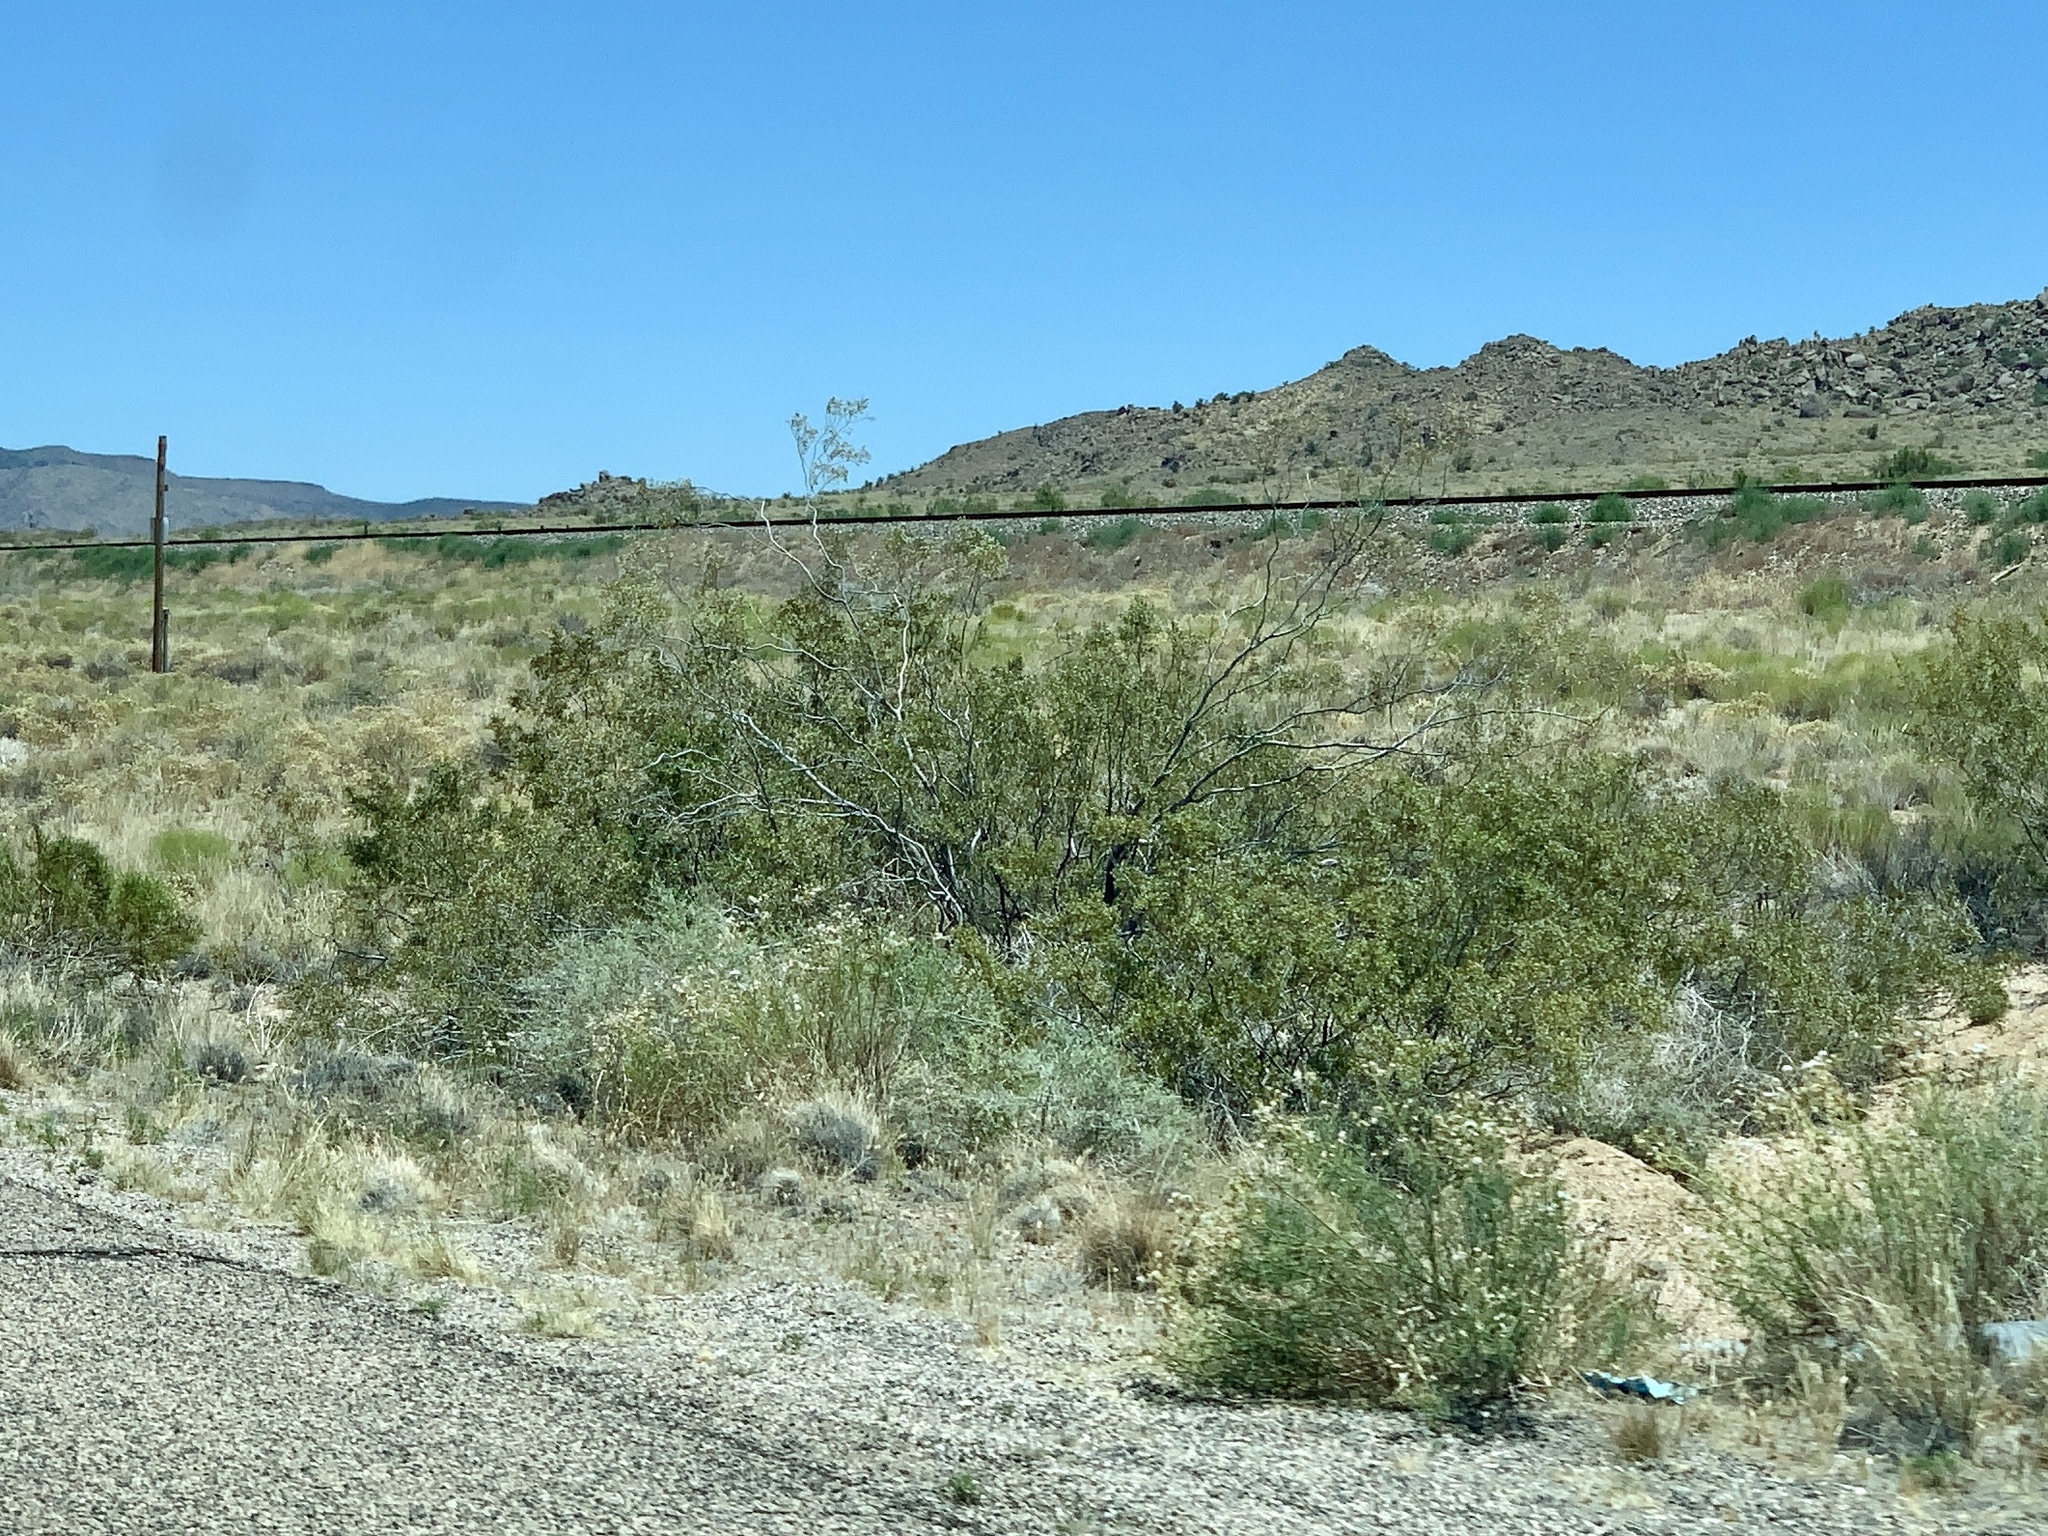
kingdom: Plantae
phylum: Tracheophyta
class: Magnoliopsida
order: Zygophyllales
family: Zygophyllaceae
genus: Larrea
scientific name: Larrea tridentata
